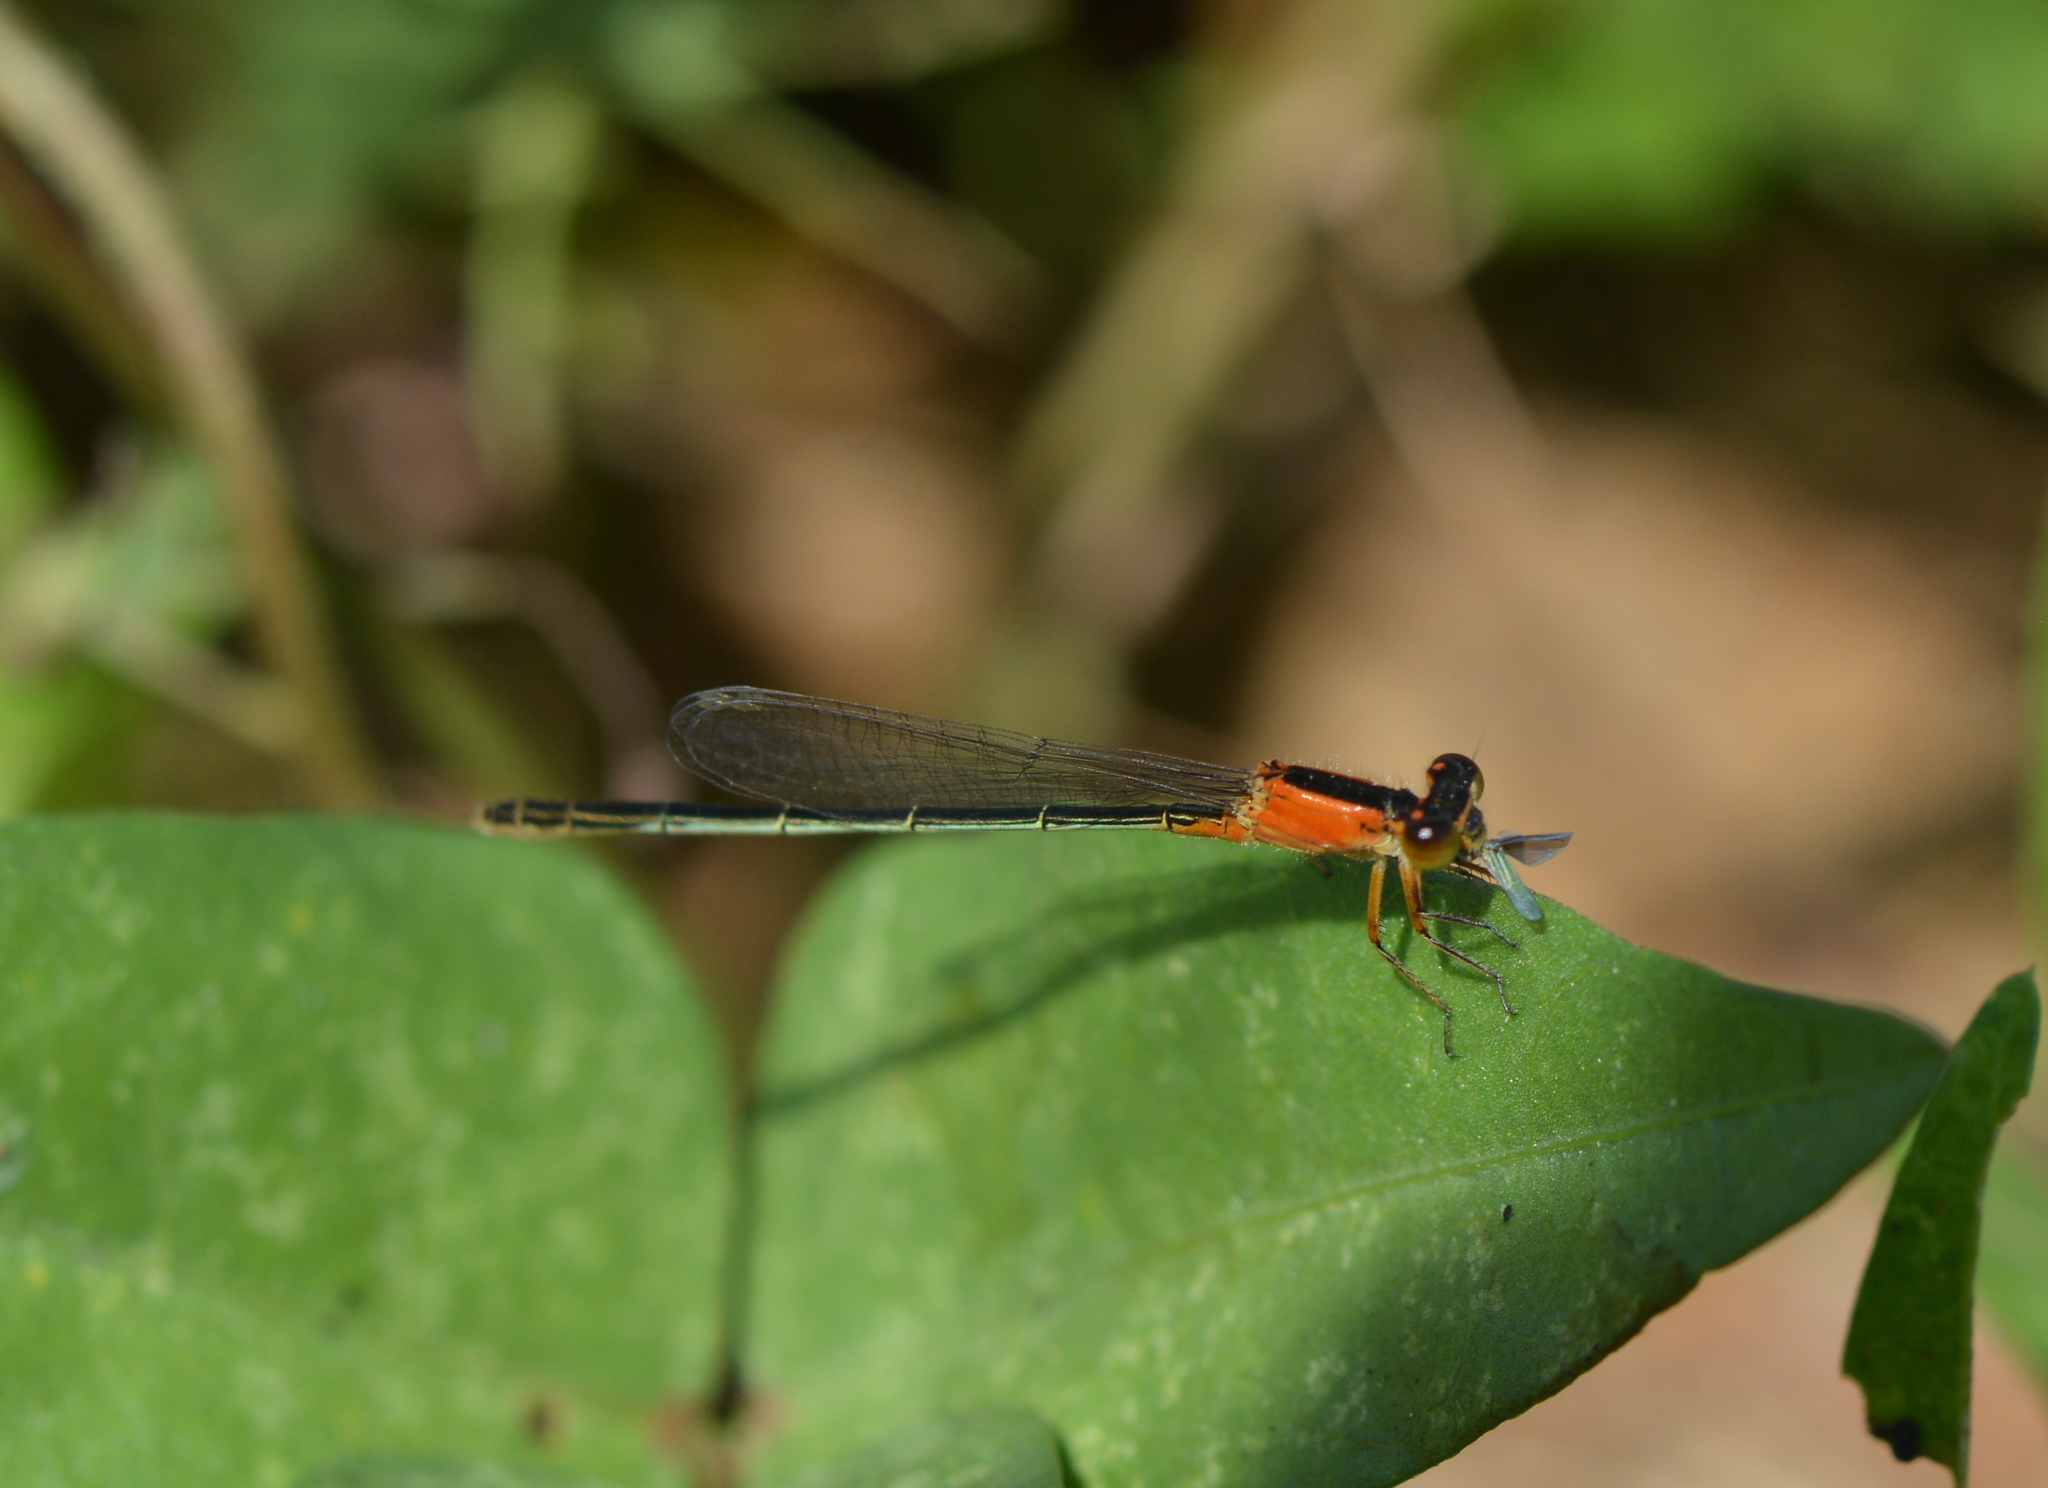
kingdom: Animalia
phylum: Arthropoda
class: Insecta
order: Odonata
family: Coenagrionidae
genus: Ischnura
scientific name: Ischnura ramburii
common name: Rambur's forktail
